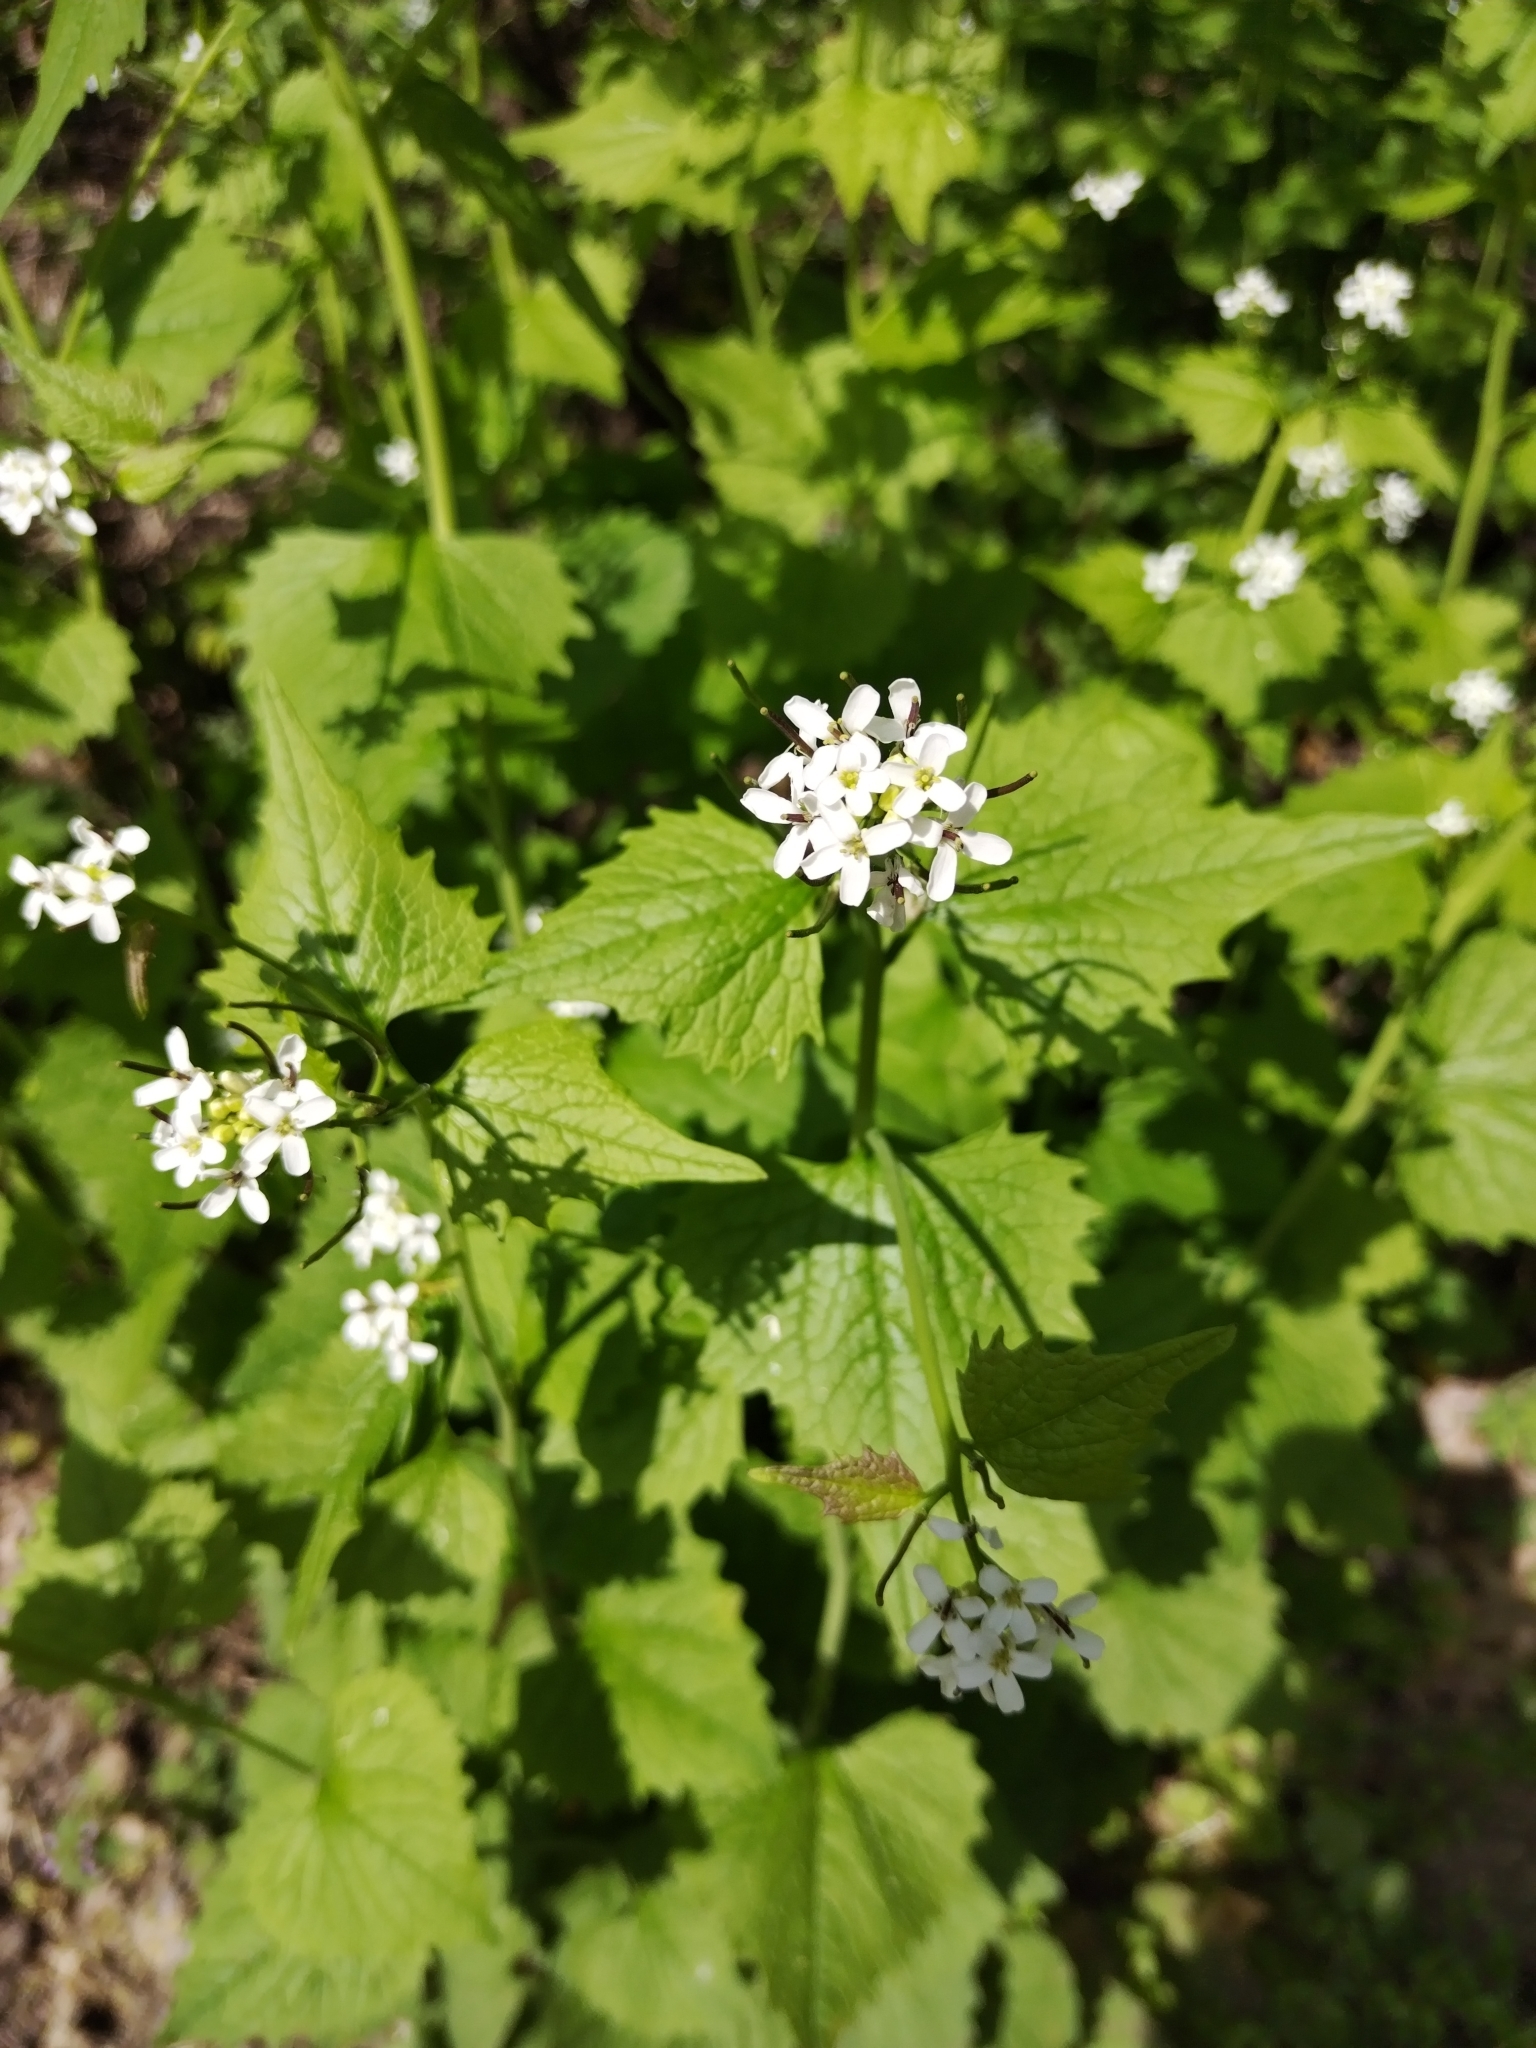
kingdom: Plantae
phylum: Tracheophyta
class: Magnoliopsida
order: Brassicales
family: Brassicaceae
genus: Alliaria
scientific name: Alliaria petiolata
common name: Garlic mustard
